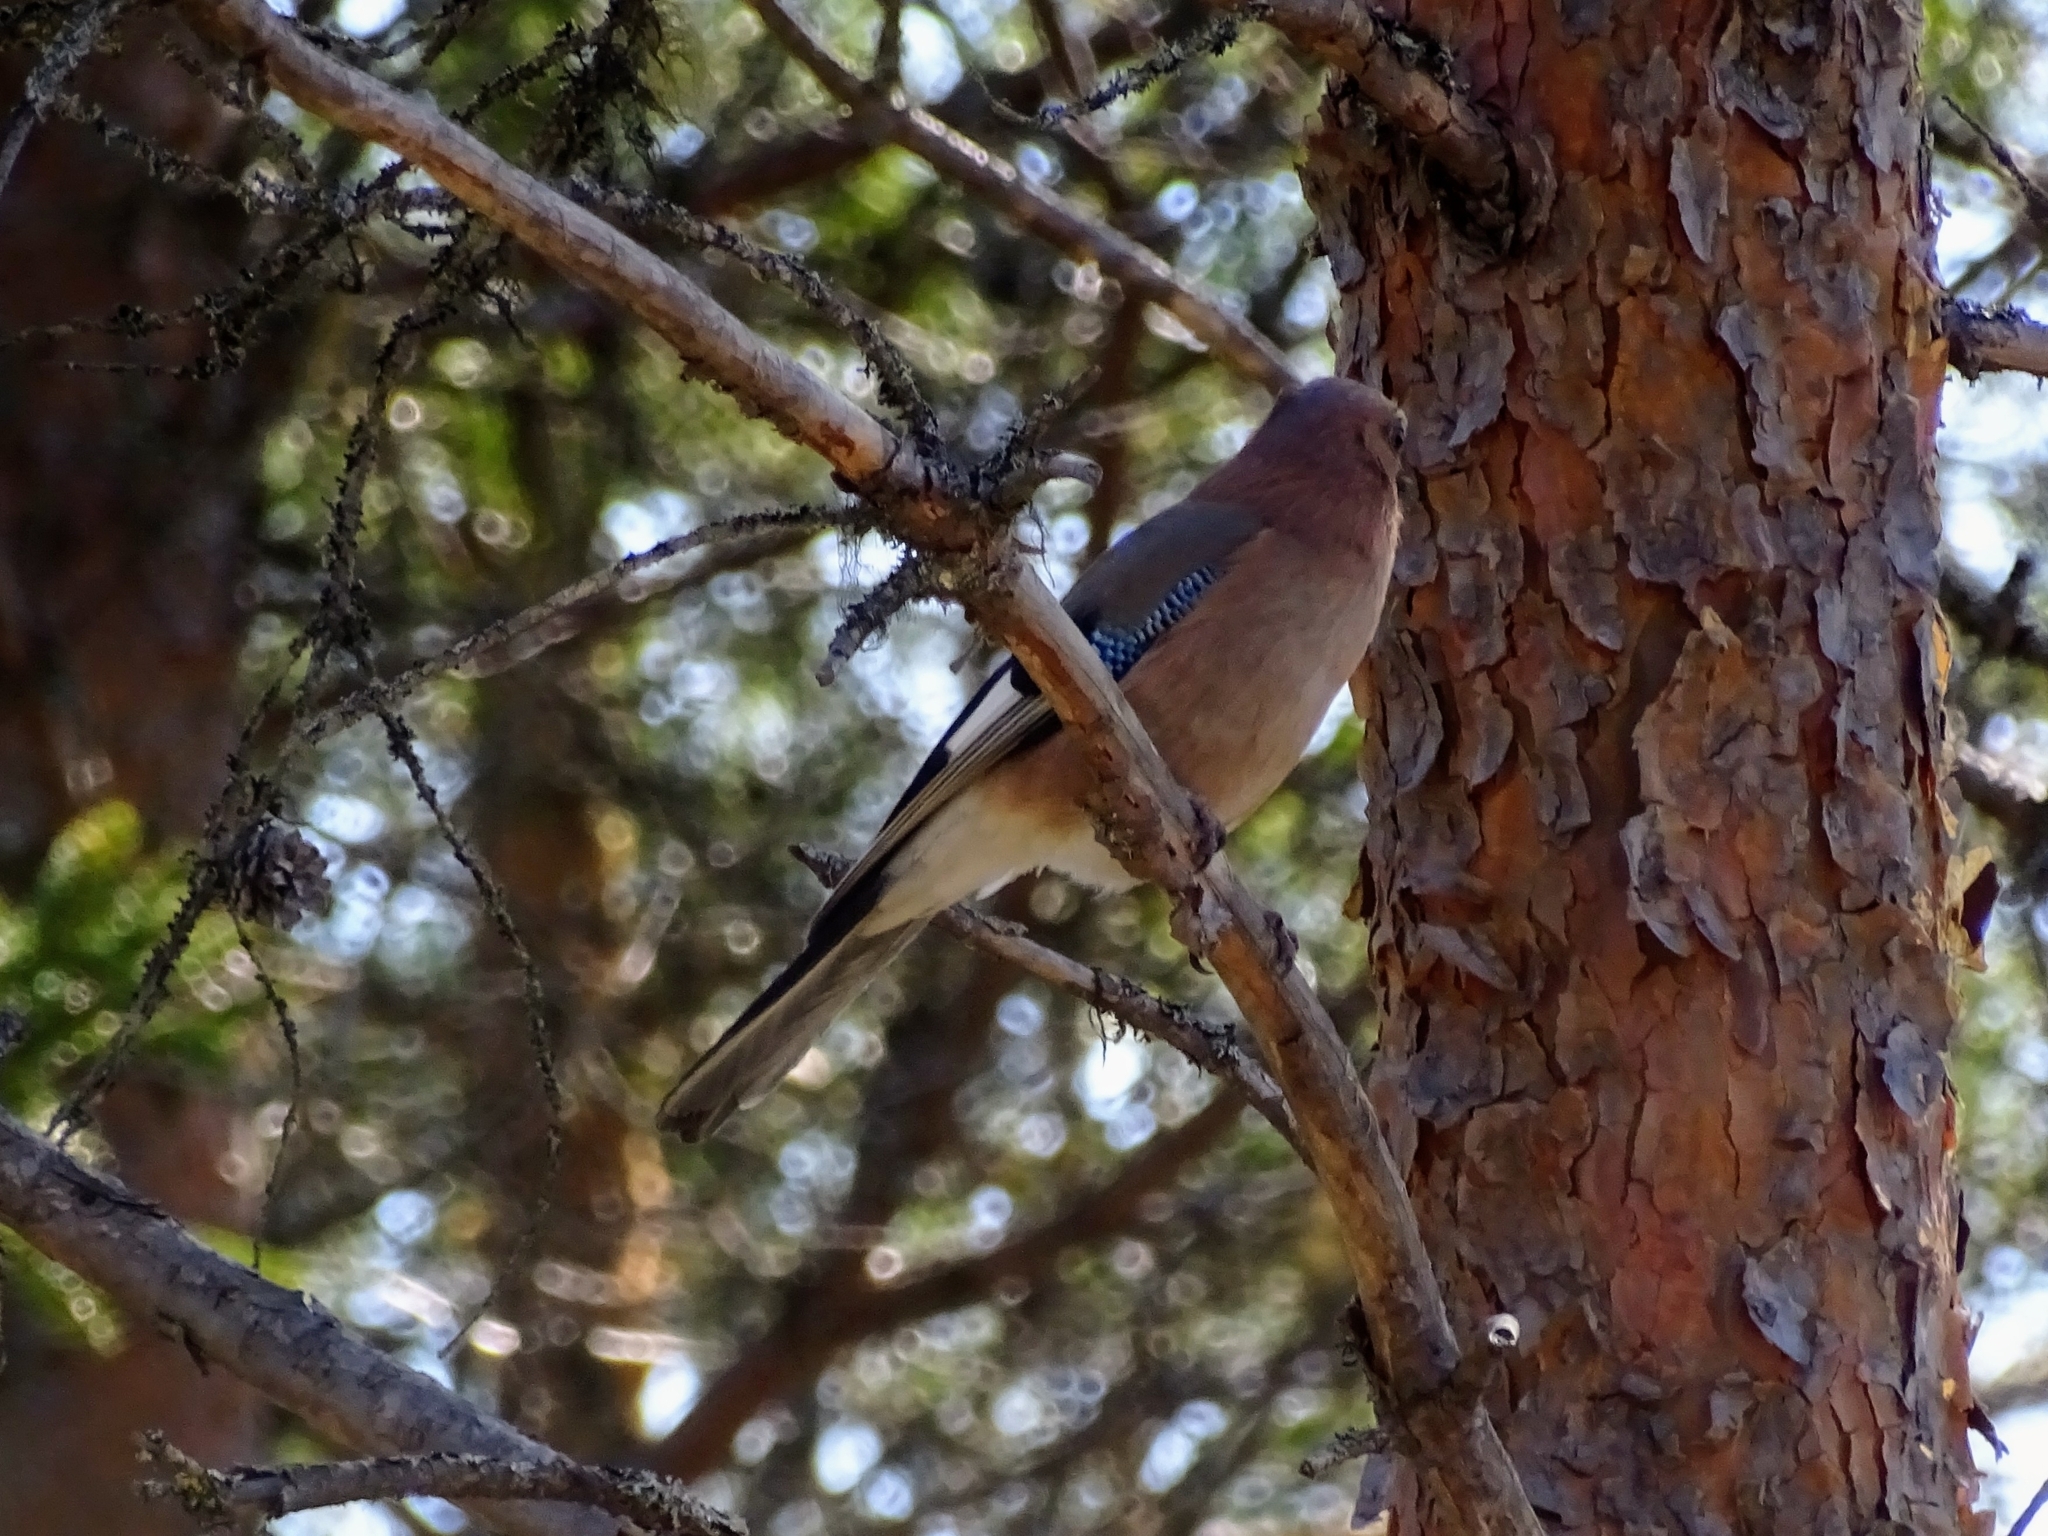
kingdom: Animalia
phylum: Chordata
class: Aves
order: Passeriformes
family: Corvidae
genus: Garrulus
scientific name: Garrulus glandarius
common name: Eurasian jay
